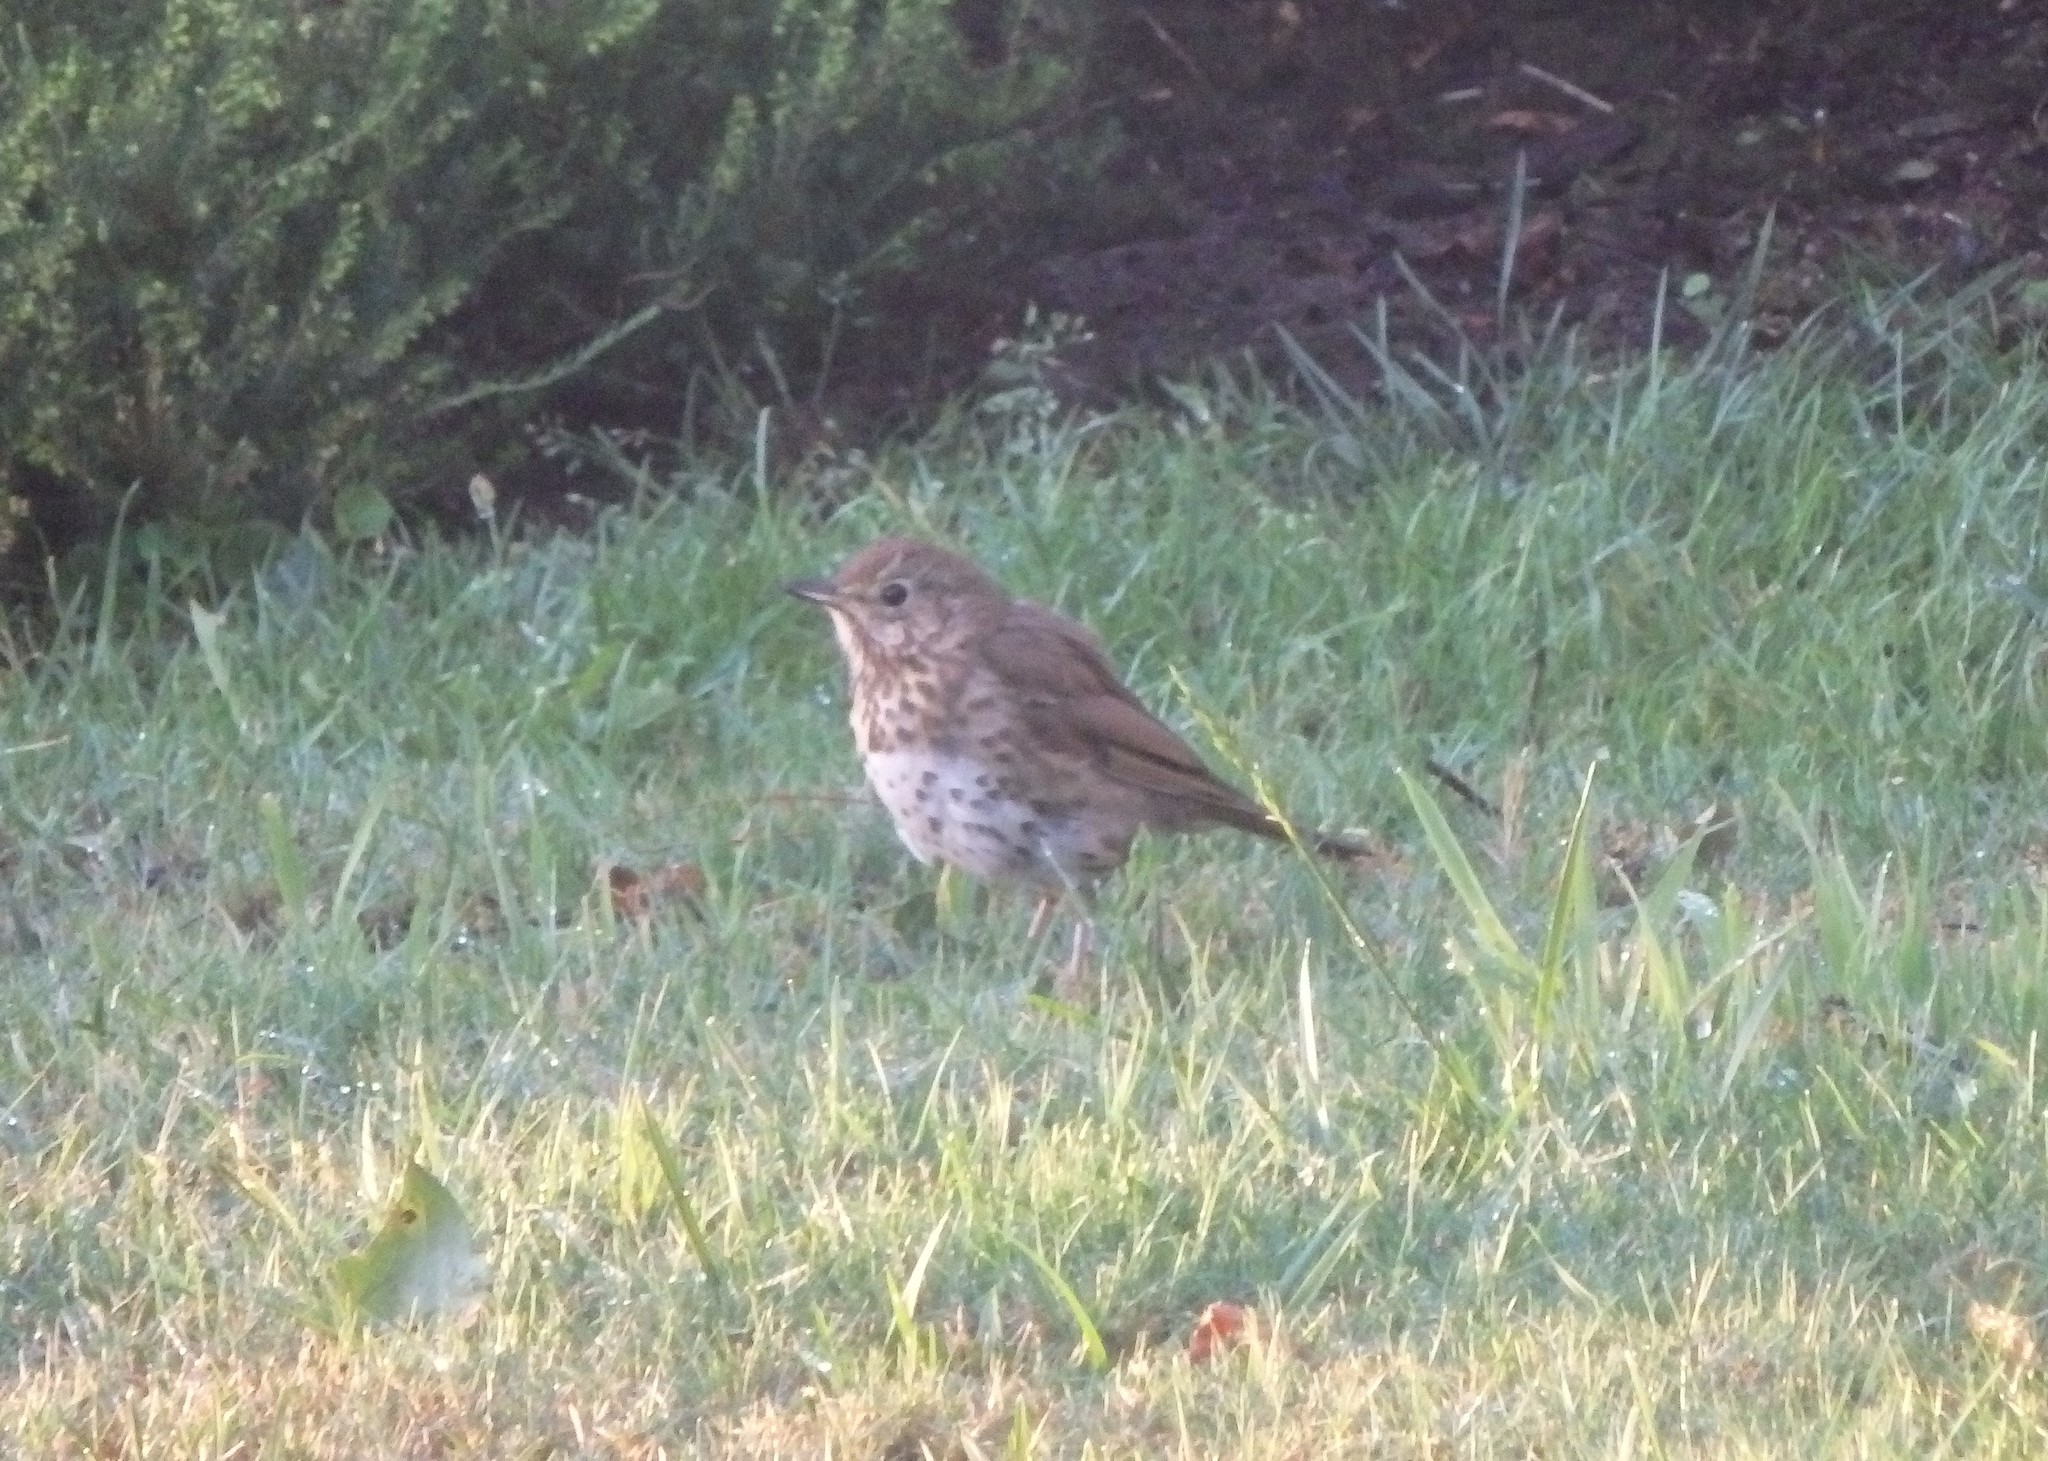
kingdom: Animalia
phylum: Chordata
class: Aves
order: Passeriformes
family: Turdidae
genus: Turdus
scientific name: Turdus philomelos
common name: Song thrush
